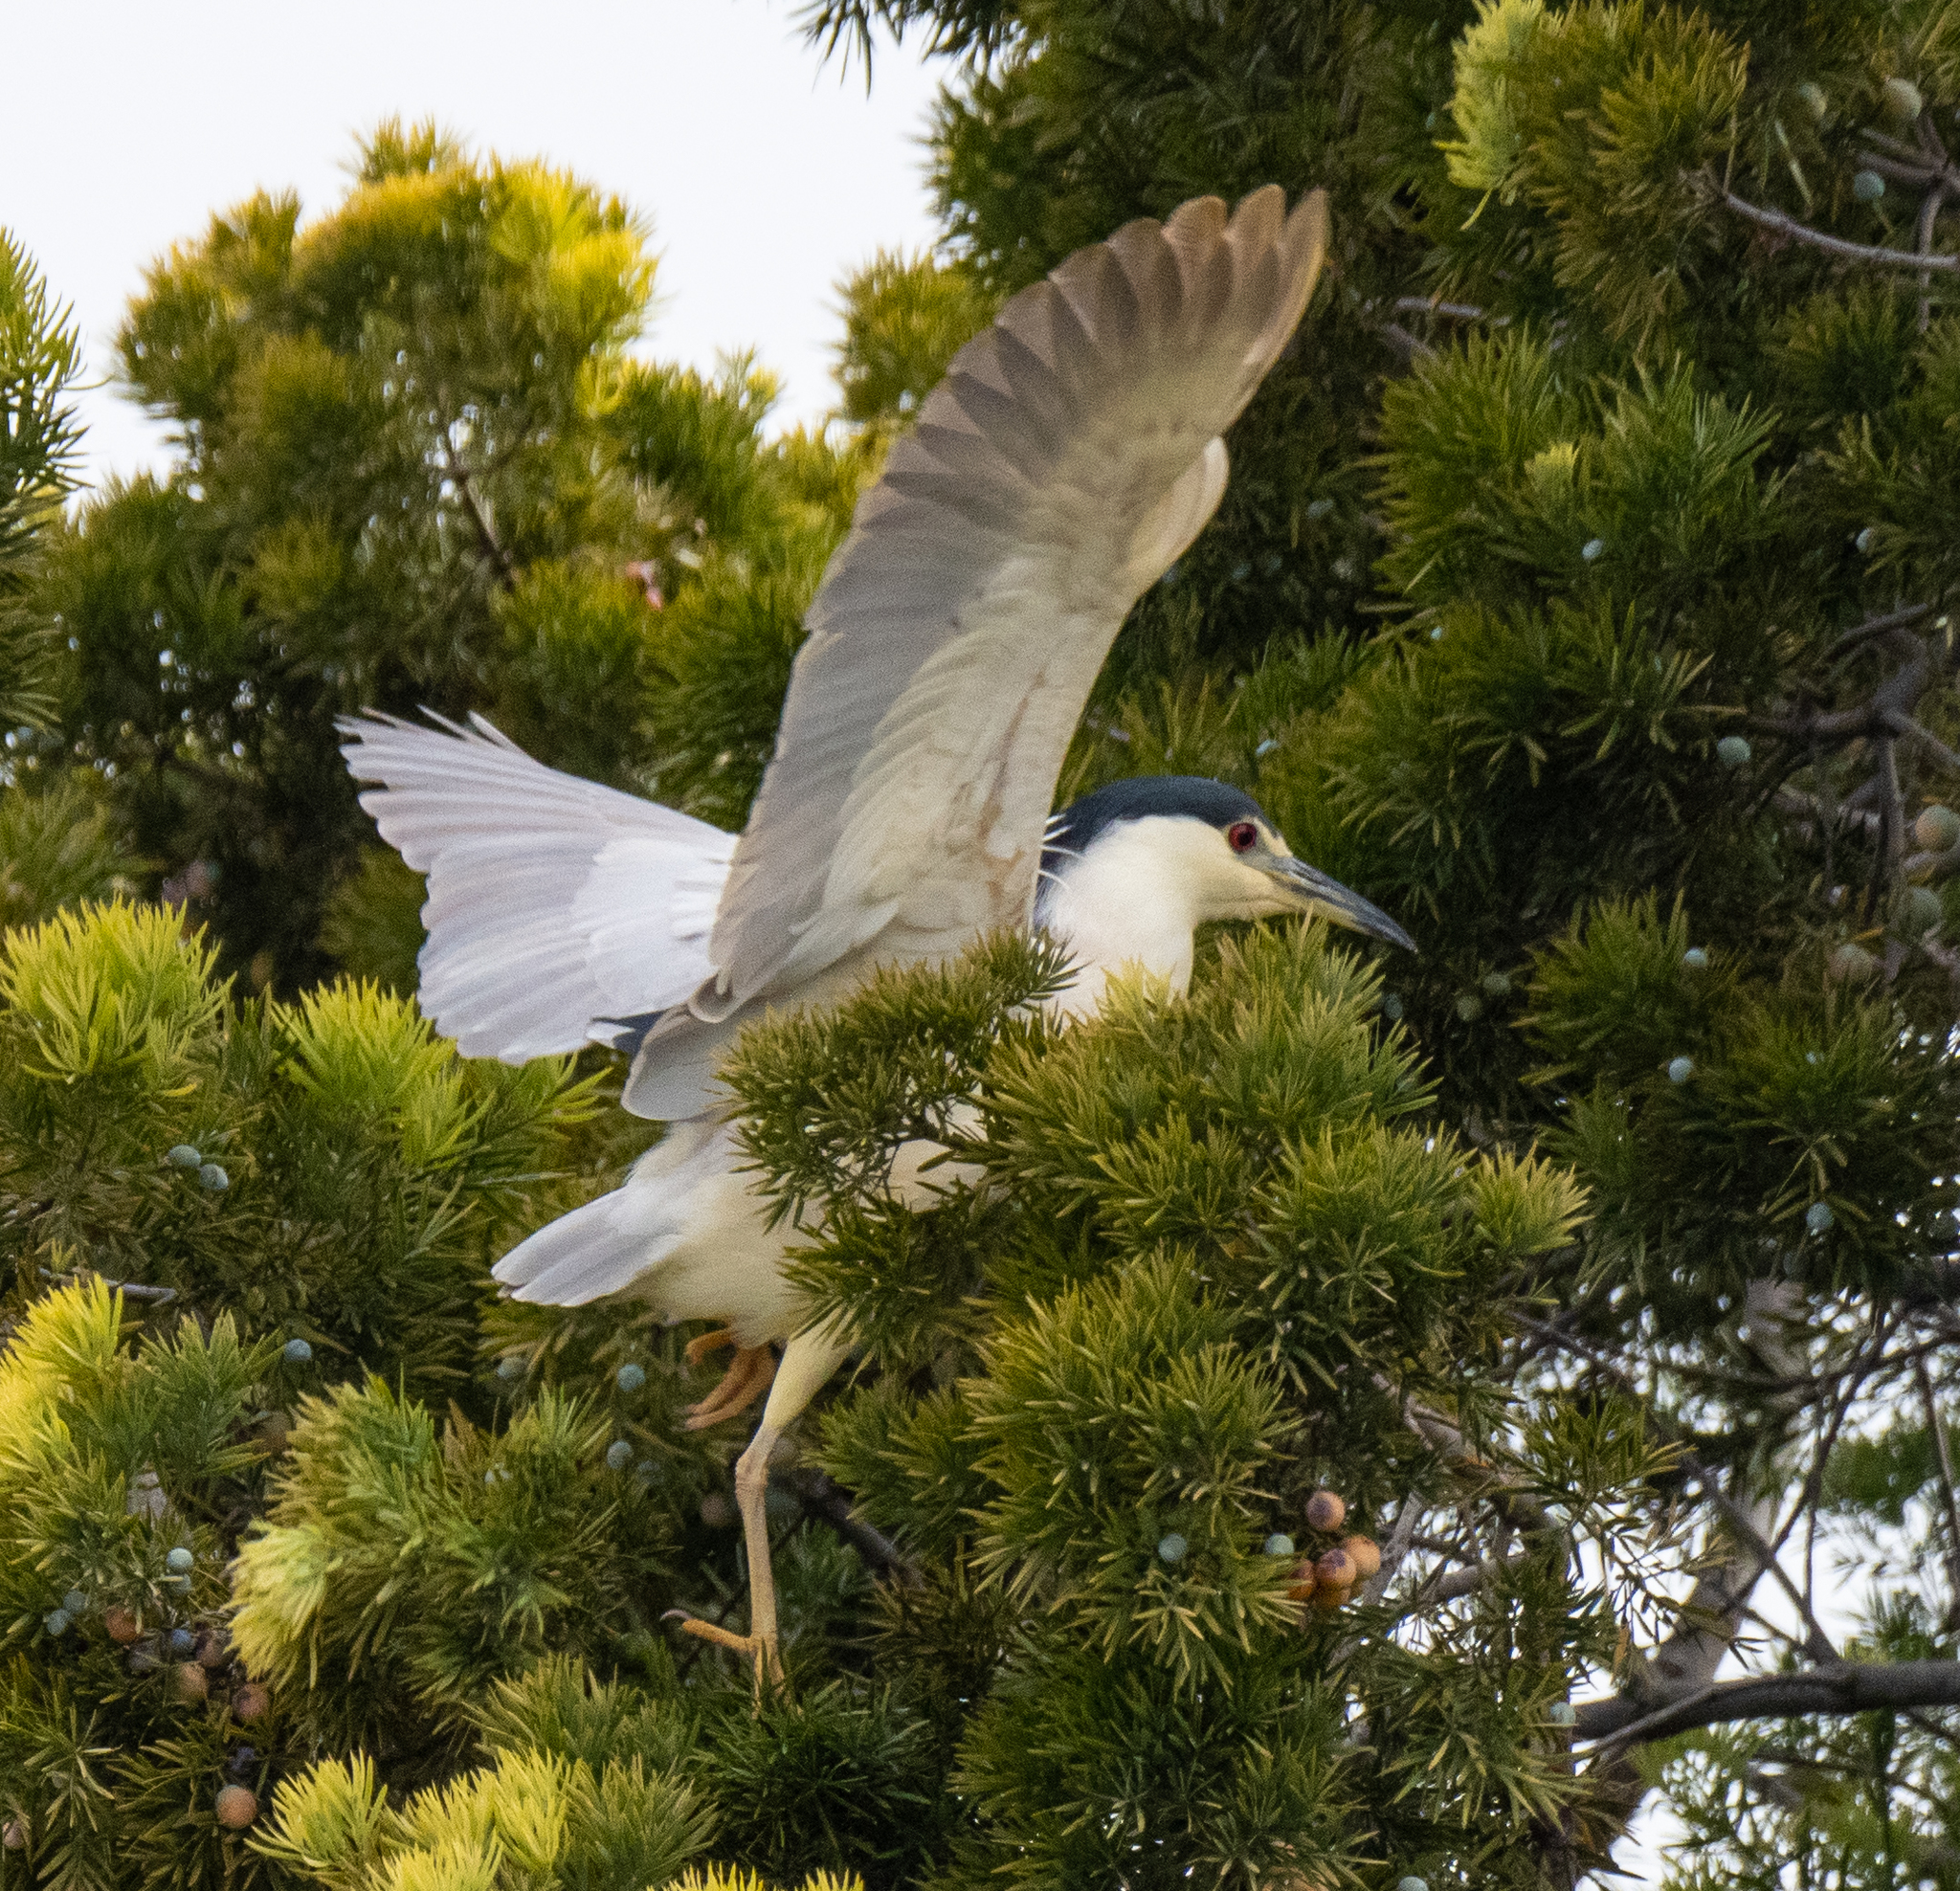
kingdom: Animalia
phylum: Chordata
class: Aves
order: Pelecaniformes
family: Ardeidae
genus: Nycticorax
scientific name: Nycticorax nycticorax
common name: Black-crowned night heron
